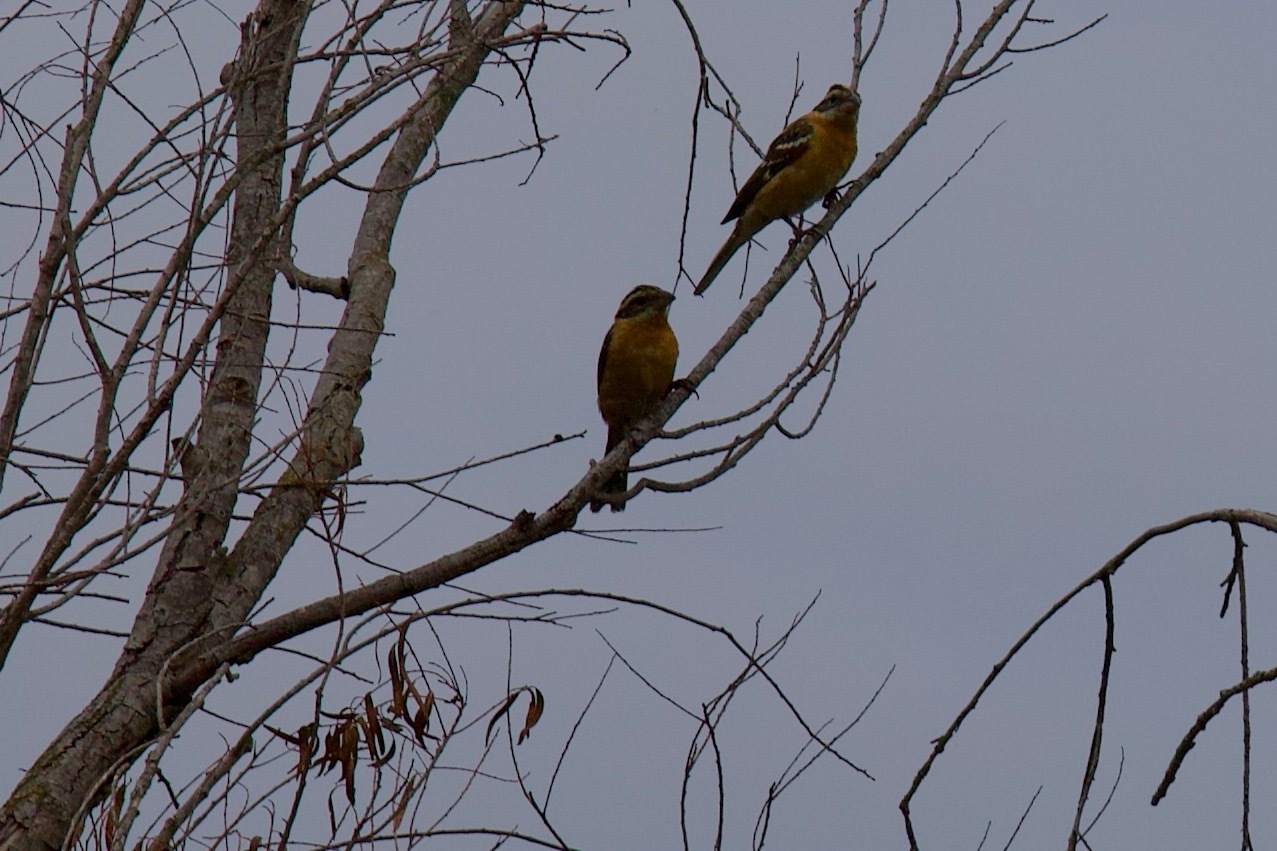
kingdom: Animalia
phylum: Chordata
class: Aves
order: Passeriformes
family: Cardinalidae
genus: Pheucticus
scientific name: Pheucticus melanocephalus
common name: Black-headed grosbeak
